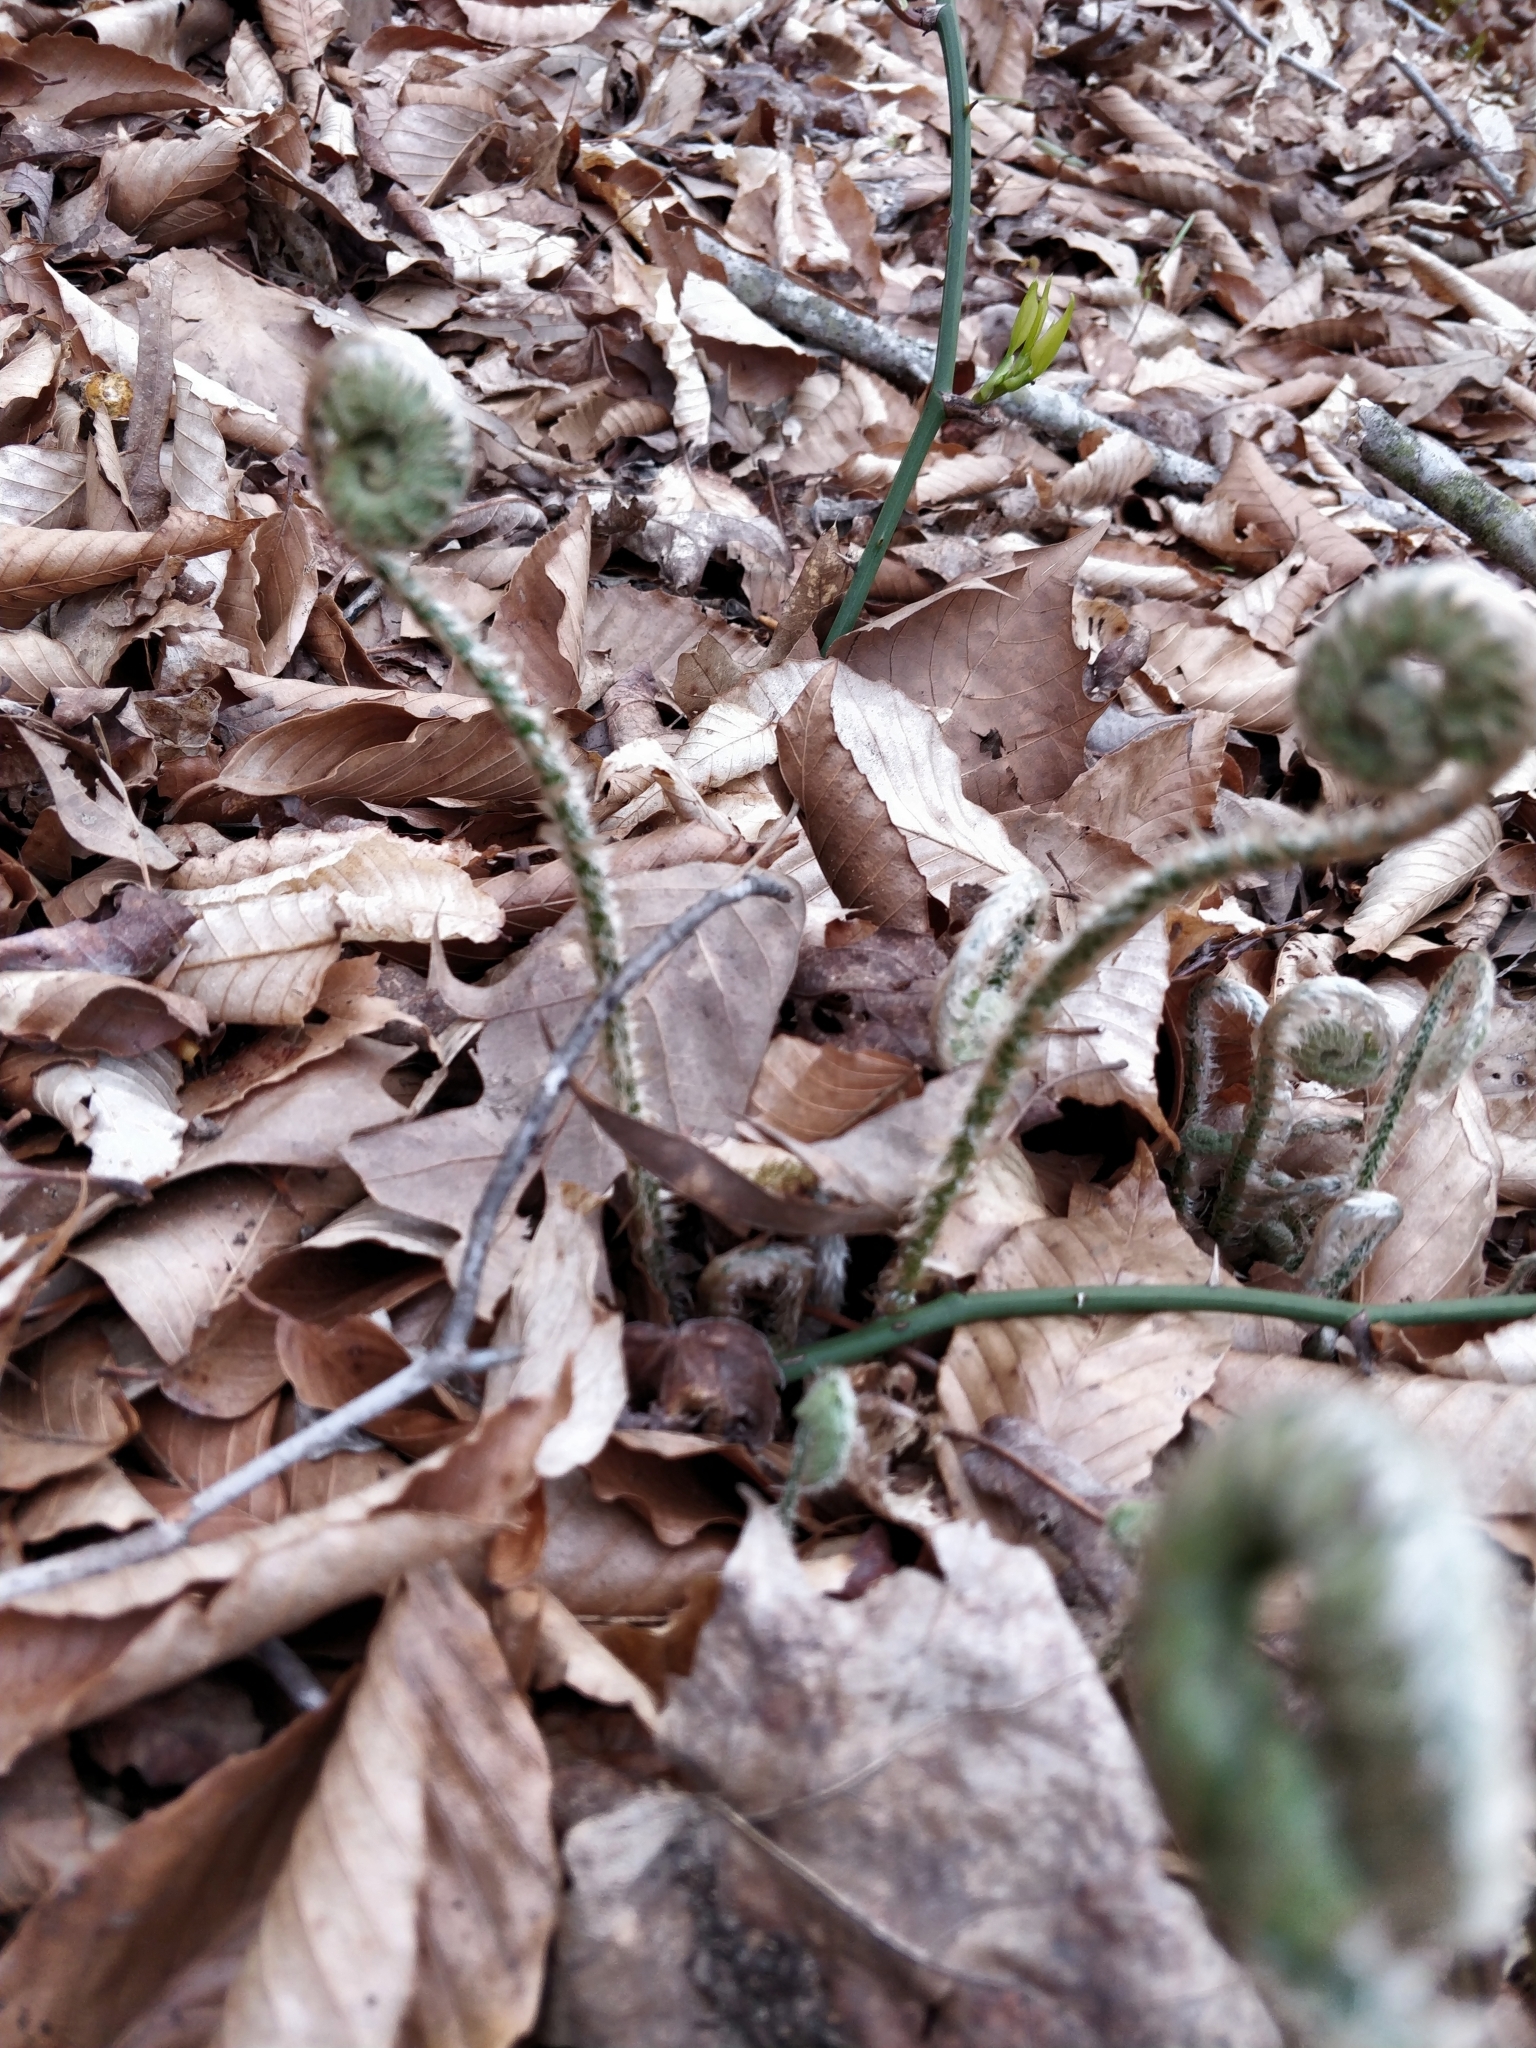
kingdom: Plantae
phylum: Tracheophyta
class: Polypodiopsida
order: Polypodiales
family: Dryopteridaceae
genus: Polystichum
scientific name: Polystichum acrostichoides
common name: Christmas fern
